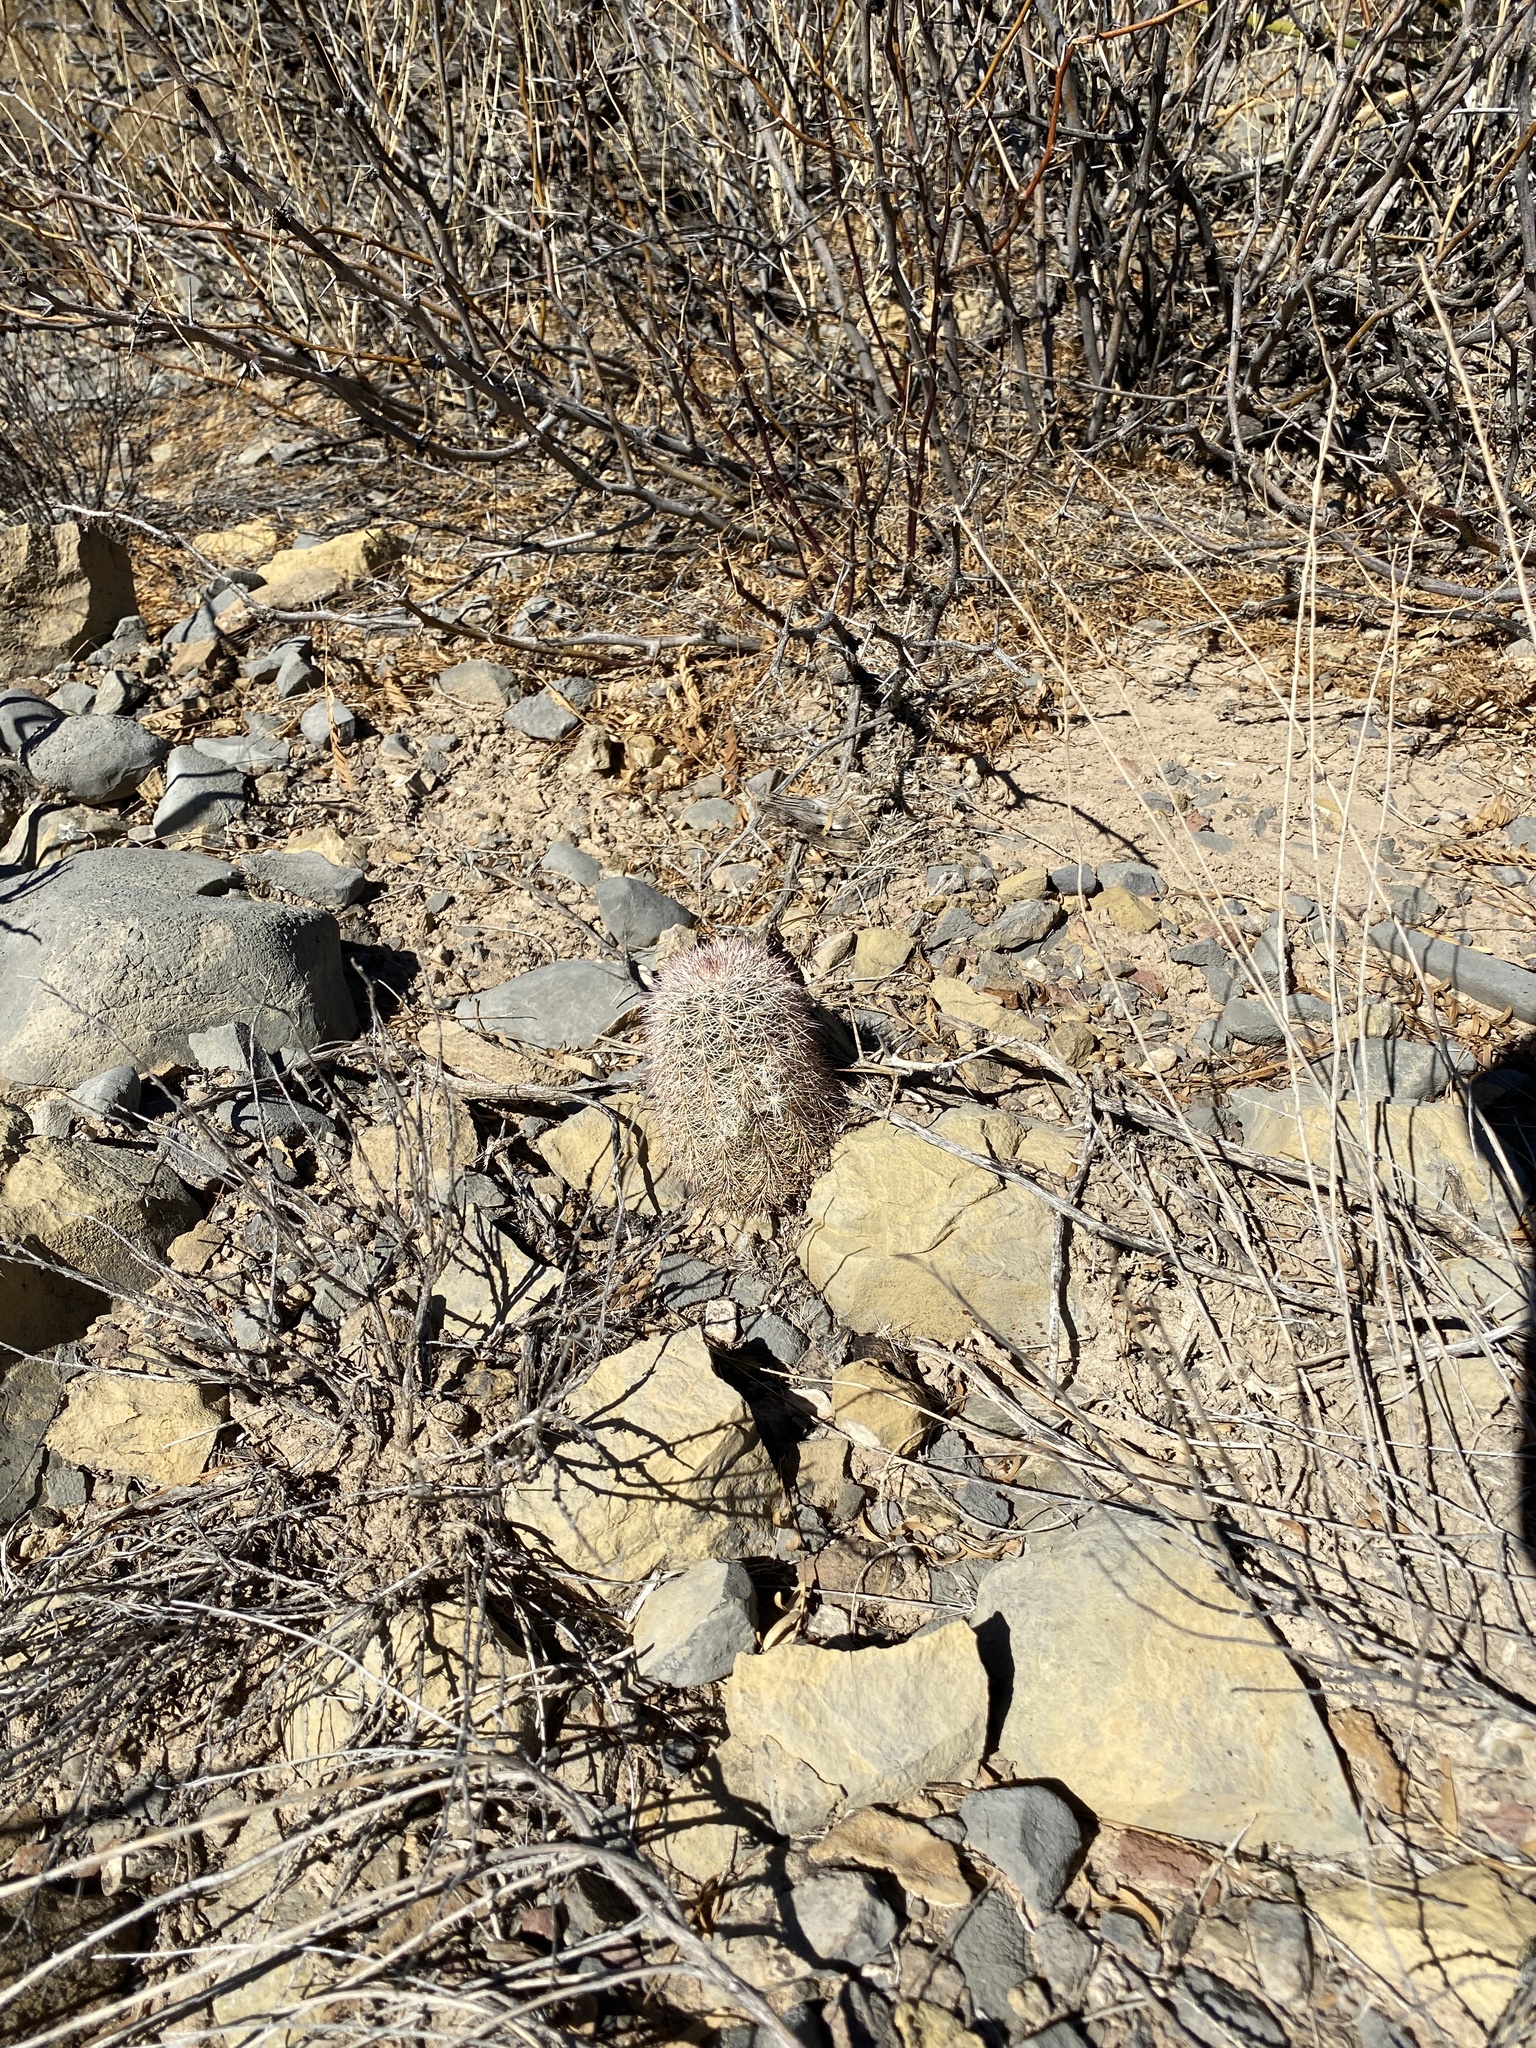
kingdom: Plantae
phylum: Tracheophyta
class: Magnoliopsida
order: Caryophyllales
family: Cactaceae
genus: Echinocereus
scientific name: Echinocereus dasyacanthus
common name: Spiny hedgehog cactus
